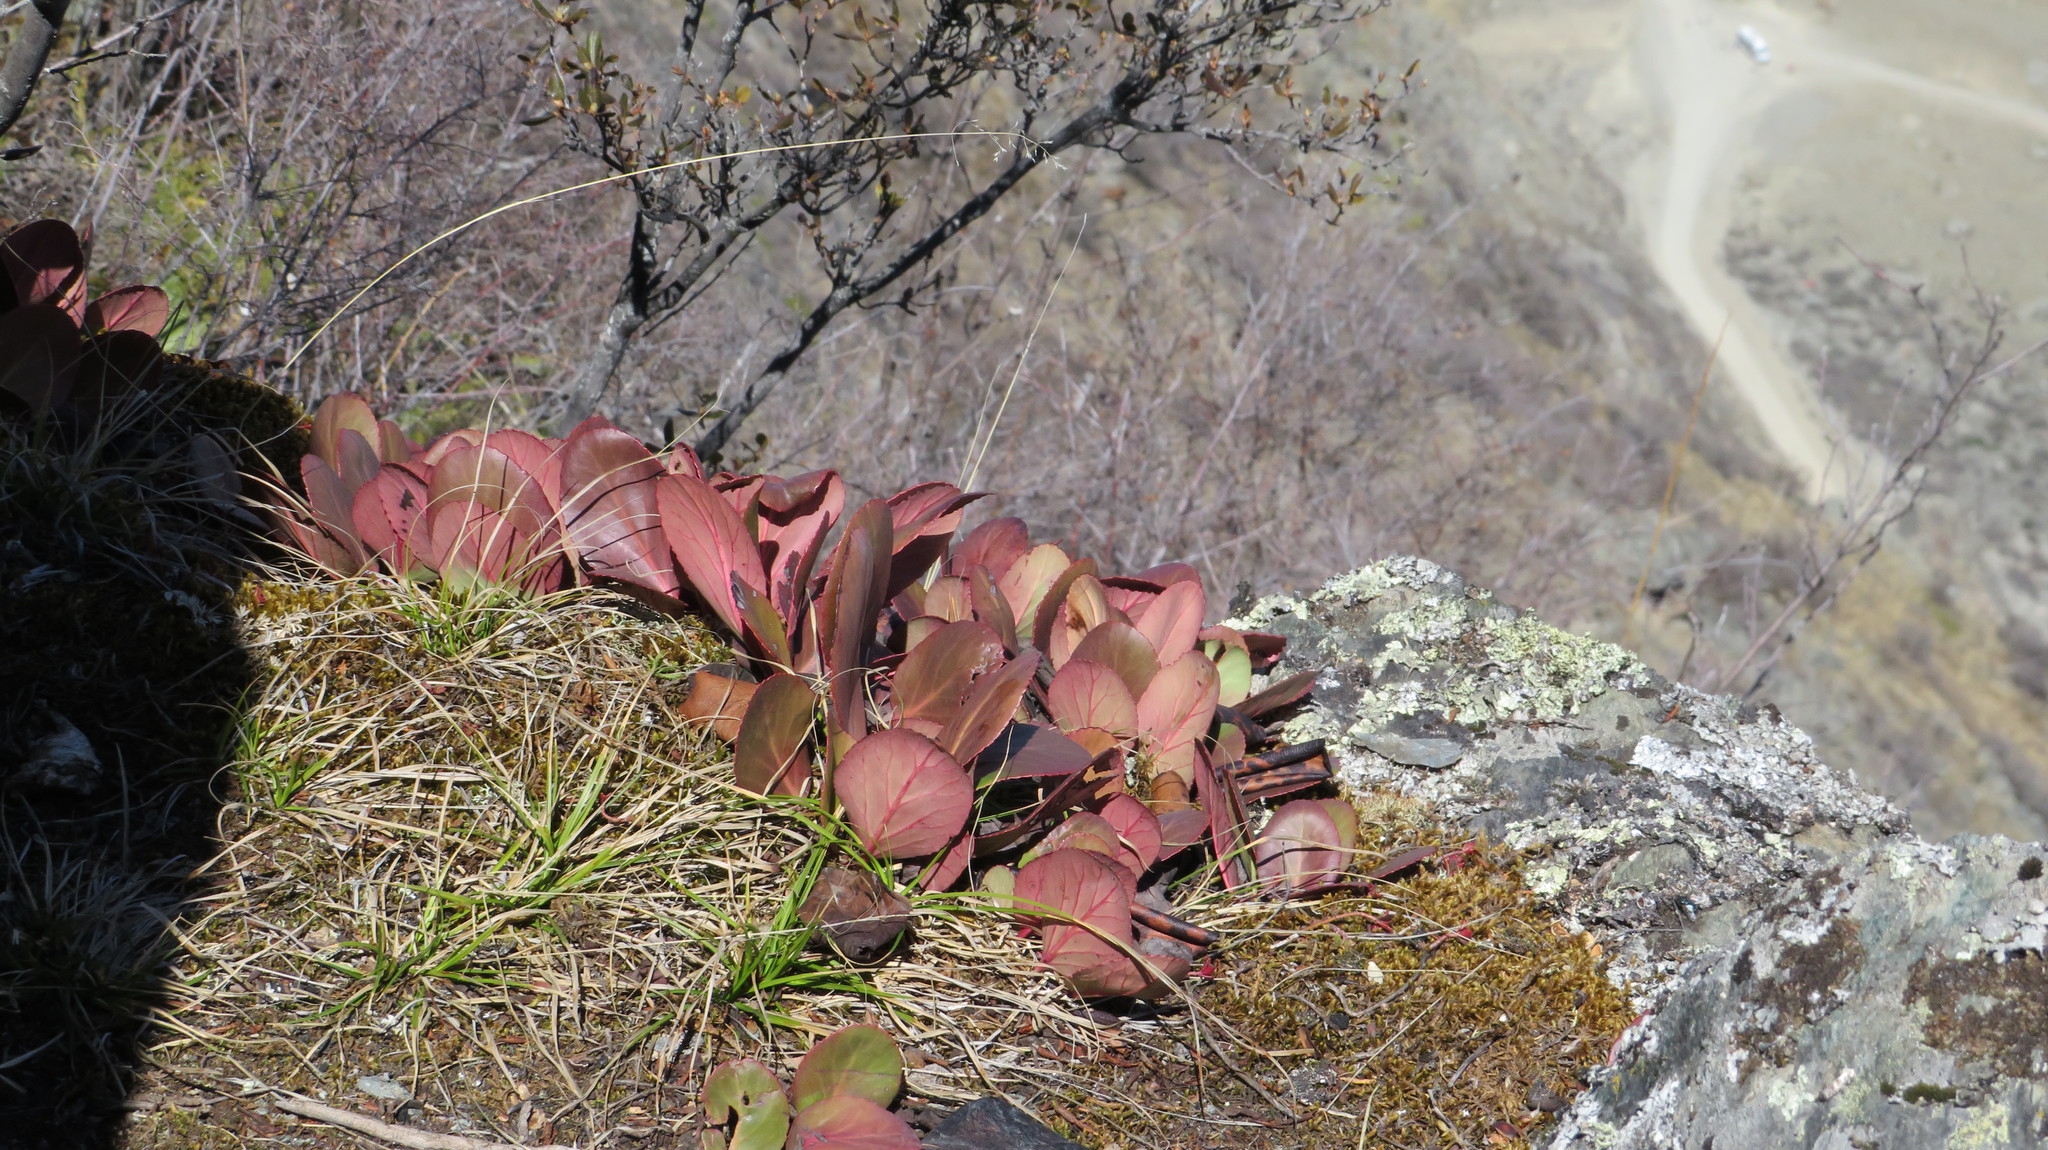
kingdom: Plantae
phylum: Tracheophyta
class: Magnoliopsida
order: Saxifragales
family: Saxifragaceae
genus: Bergenia
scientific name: Bergenia crassifolia
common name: Elephant-ears
